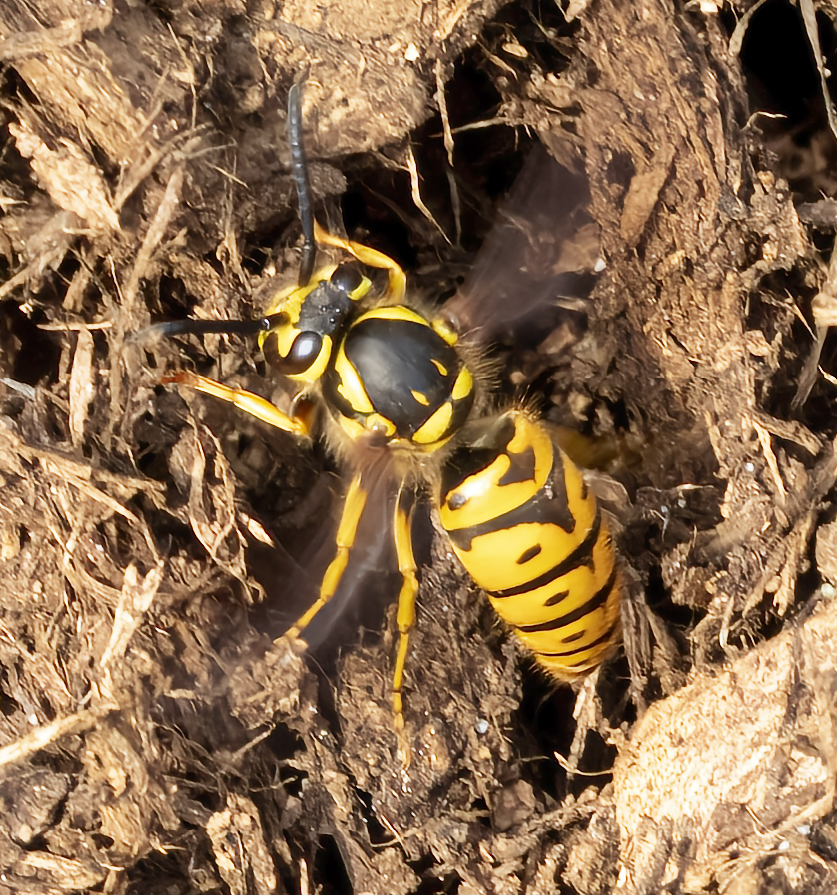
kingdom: Animalia
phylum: Arthropoda
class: Insecta
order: Hymenoptera
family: Vespidae
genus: Vespula
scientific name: Vespula maculifrons
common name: Eastern yellowjacket
